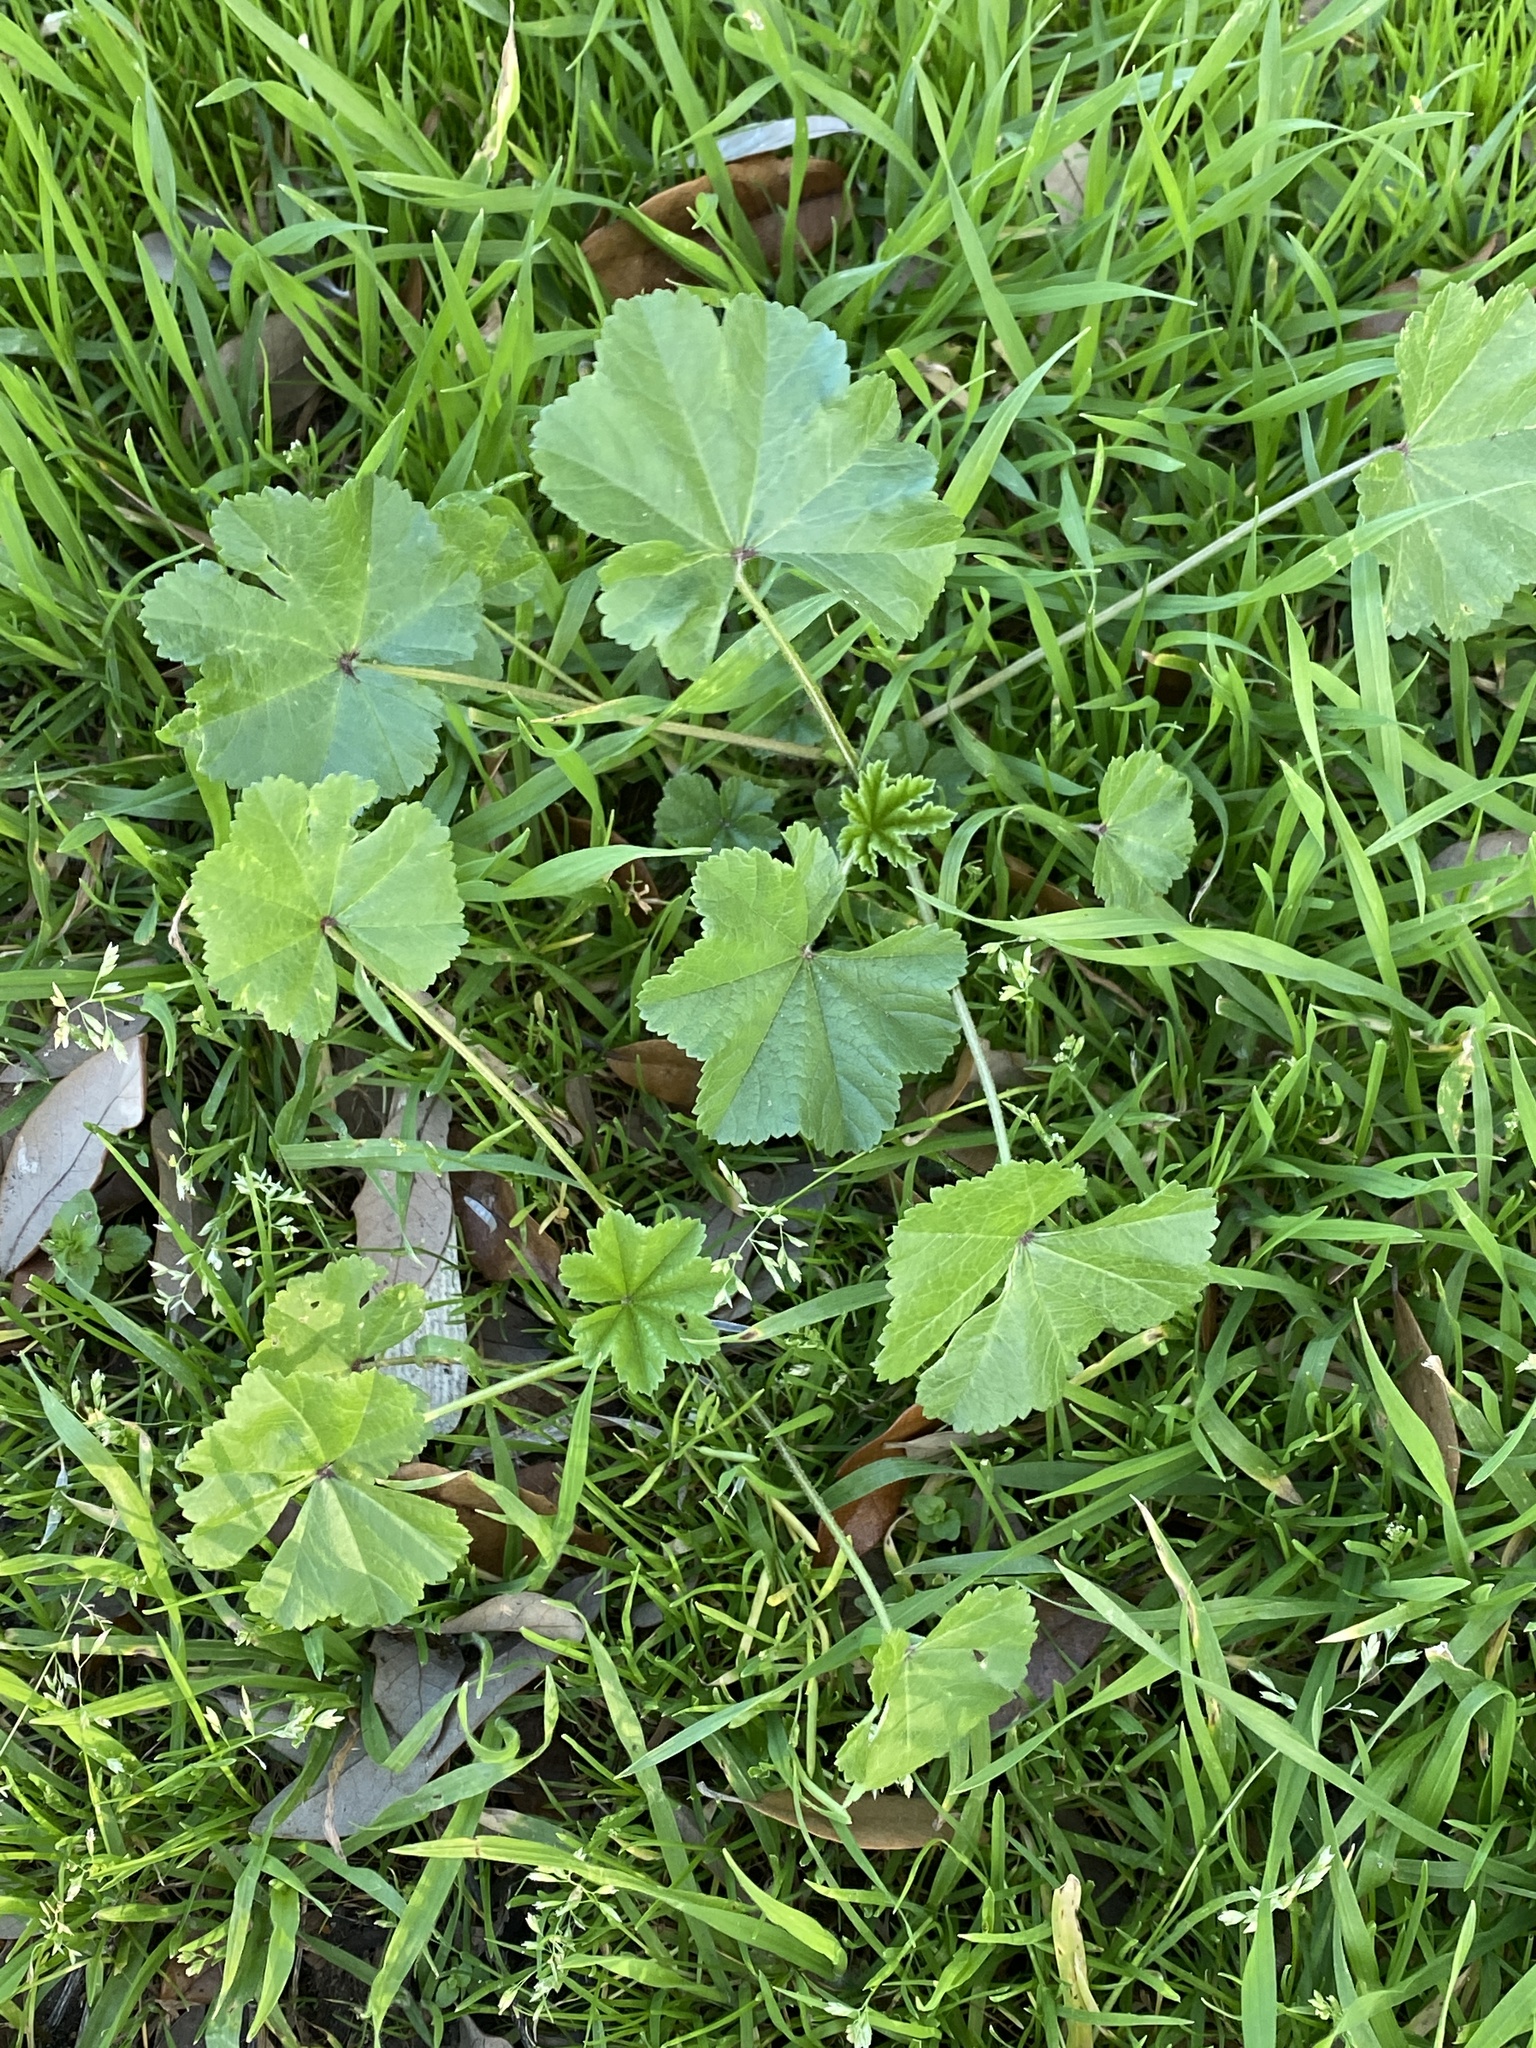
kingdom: Plantae
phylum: Tracheophyta
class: Magnoliopsida
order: Malvales
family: Malvaceae
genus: Malva
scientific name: Malva parviflora
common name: Least mallow
